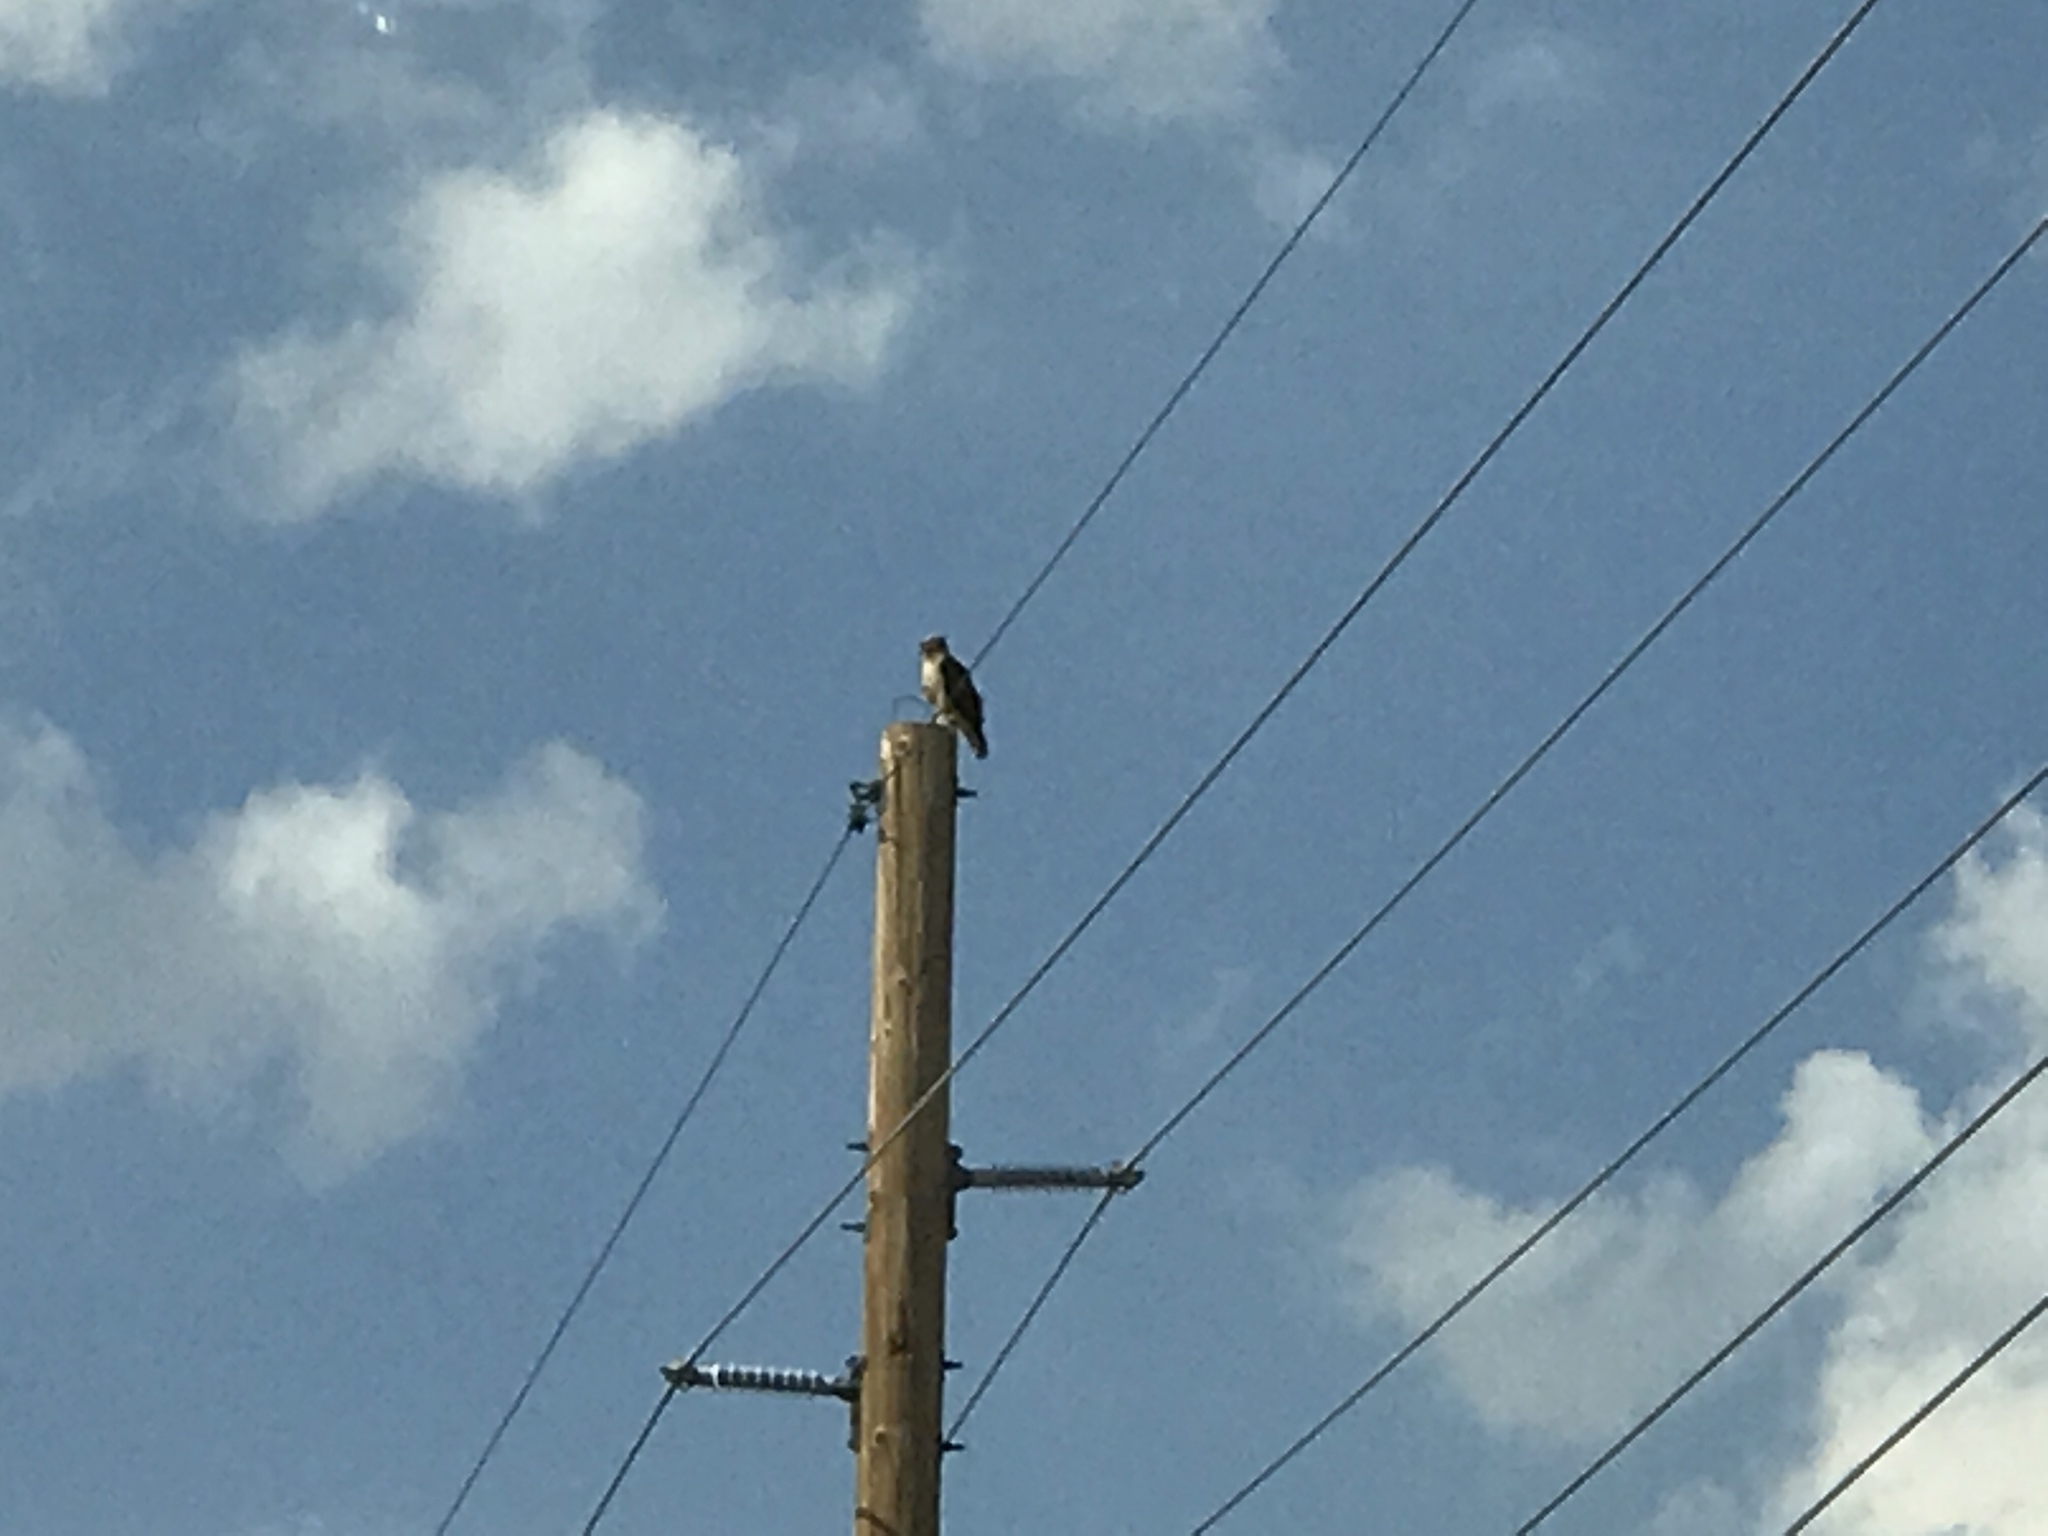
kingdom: Animalia
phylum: Chordata
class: Aves
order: Accipitriformes
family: Accipitridae
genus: Buteo
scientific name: Buteo jamaicensis
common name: Red-tailed hawk
